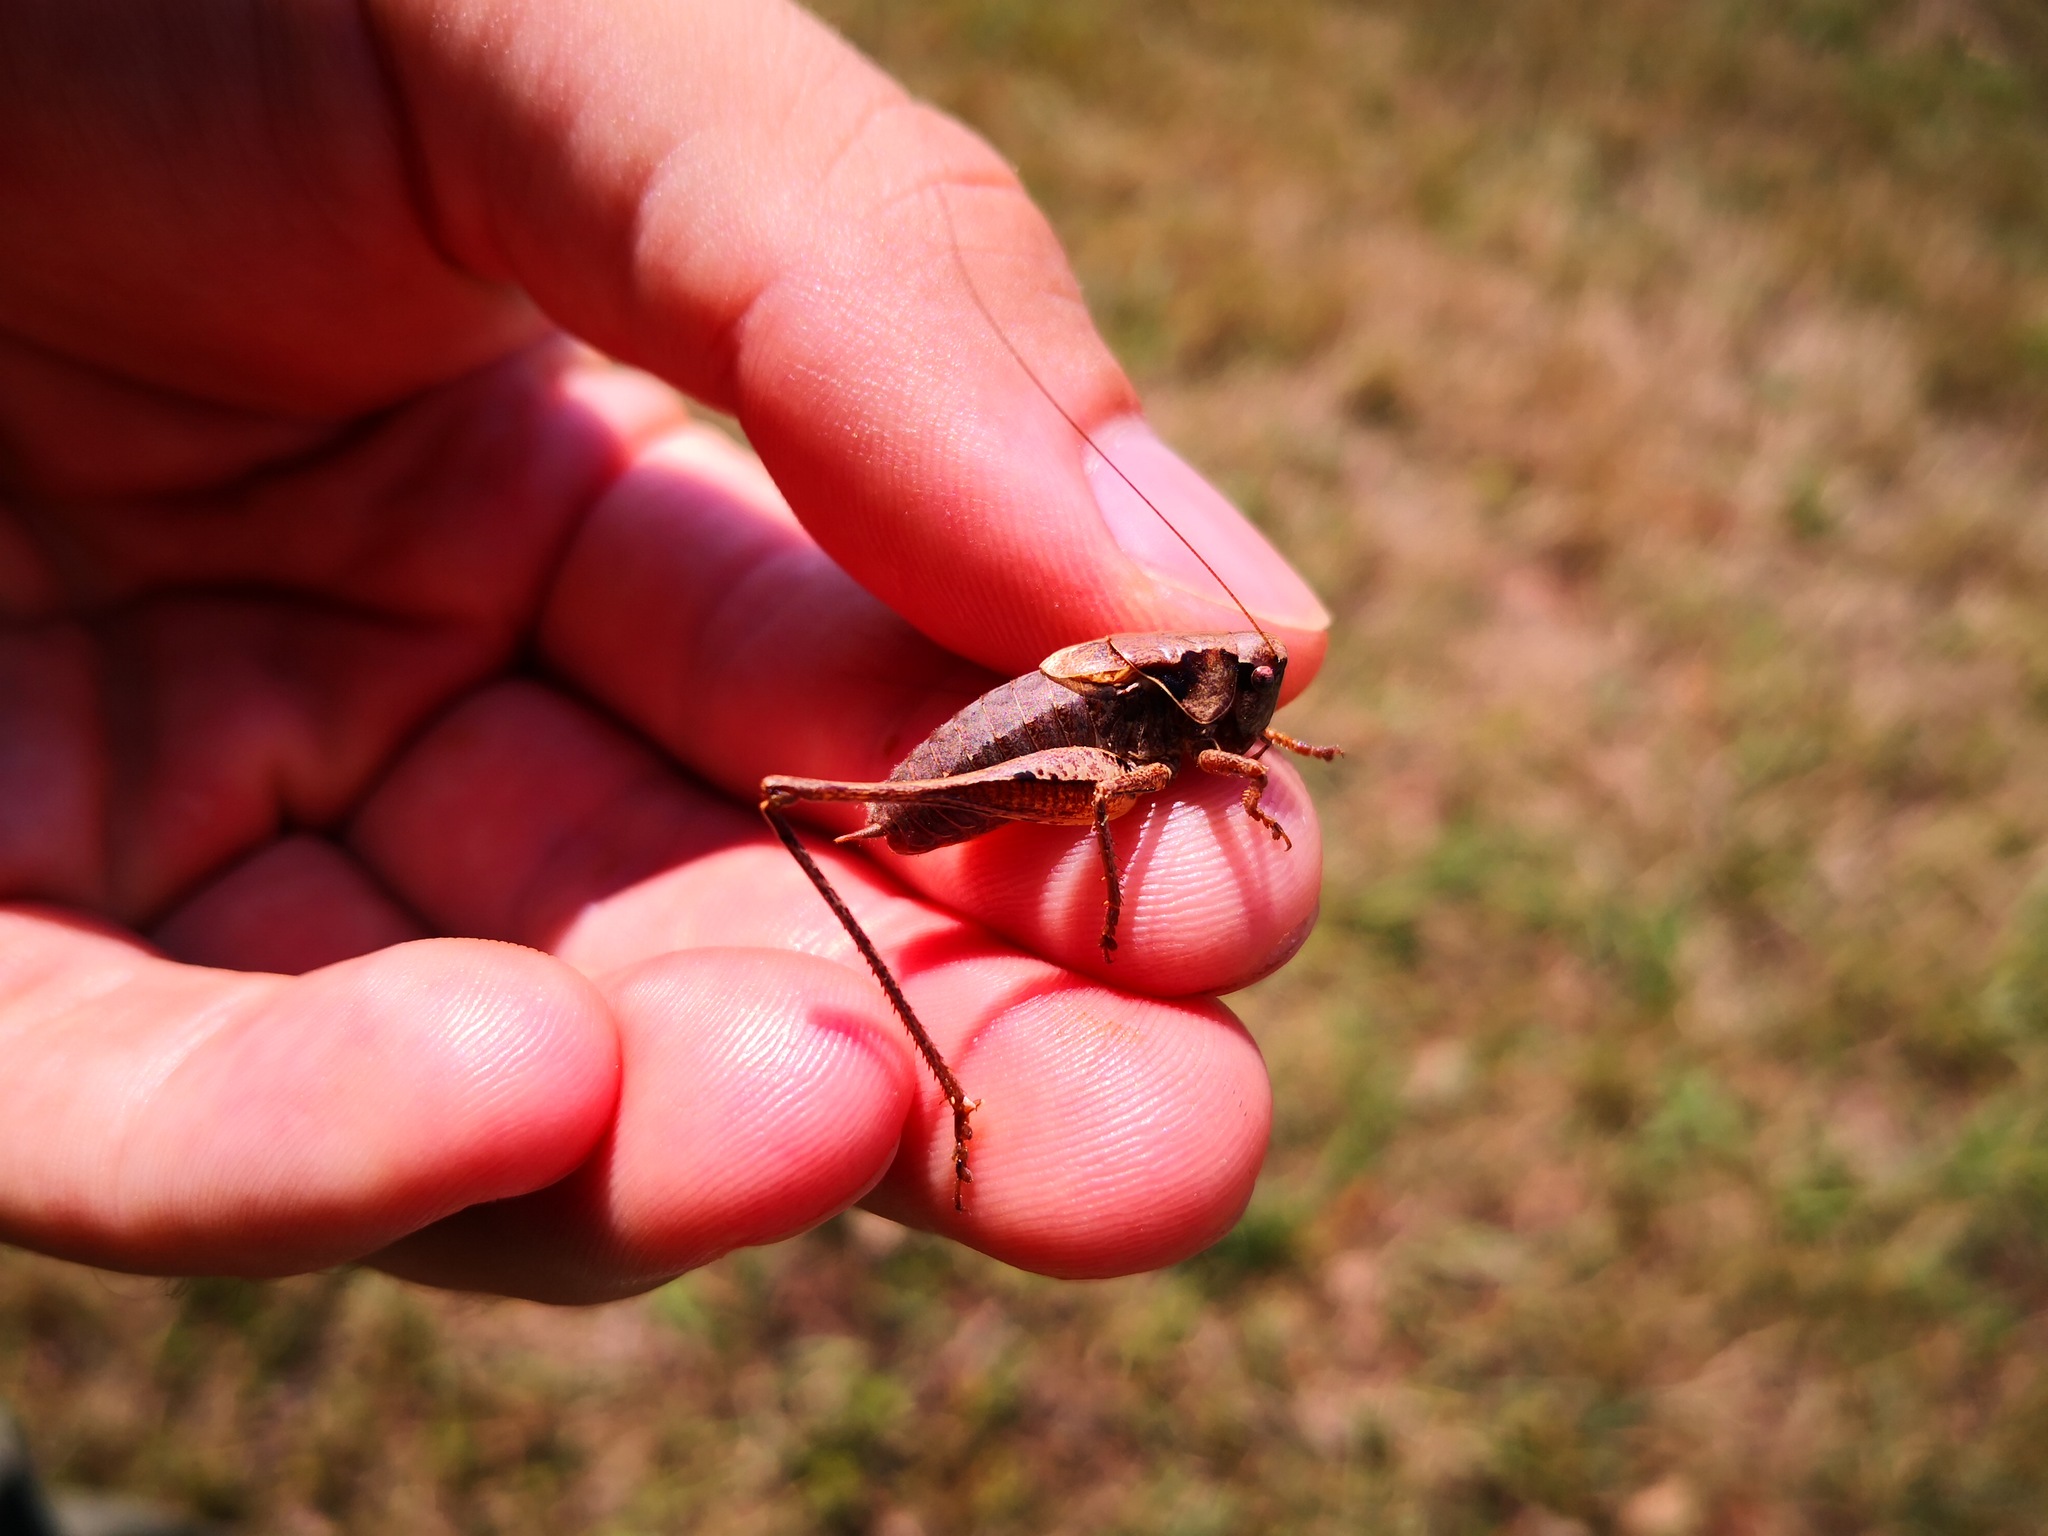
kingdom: Animalia
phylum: Arthropoda
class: Insecta
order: Orthoptera
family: Tettigoniidae
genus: Pholidoptera
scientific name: Pholidoptera griseoaptera
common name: Dark bush-cricket
